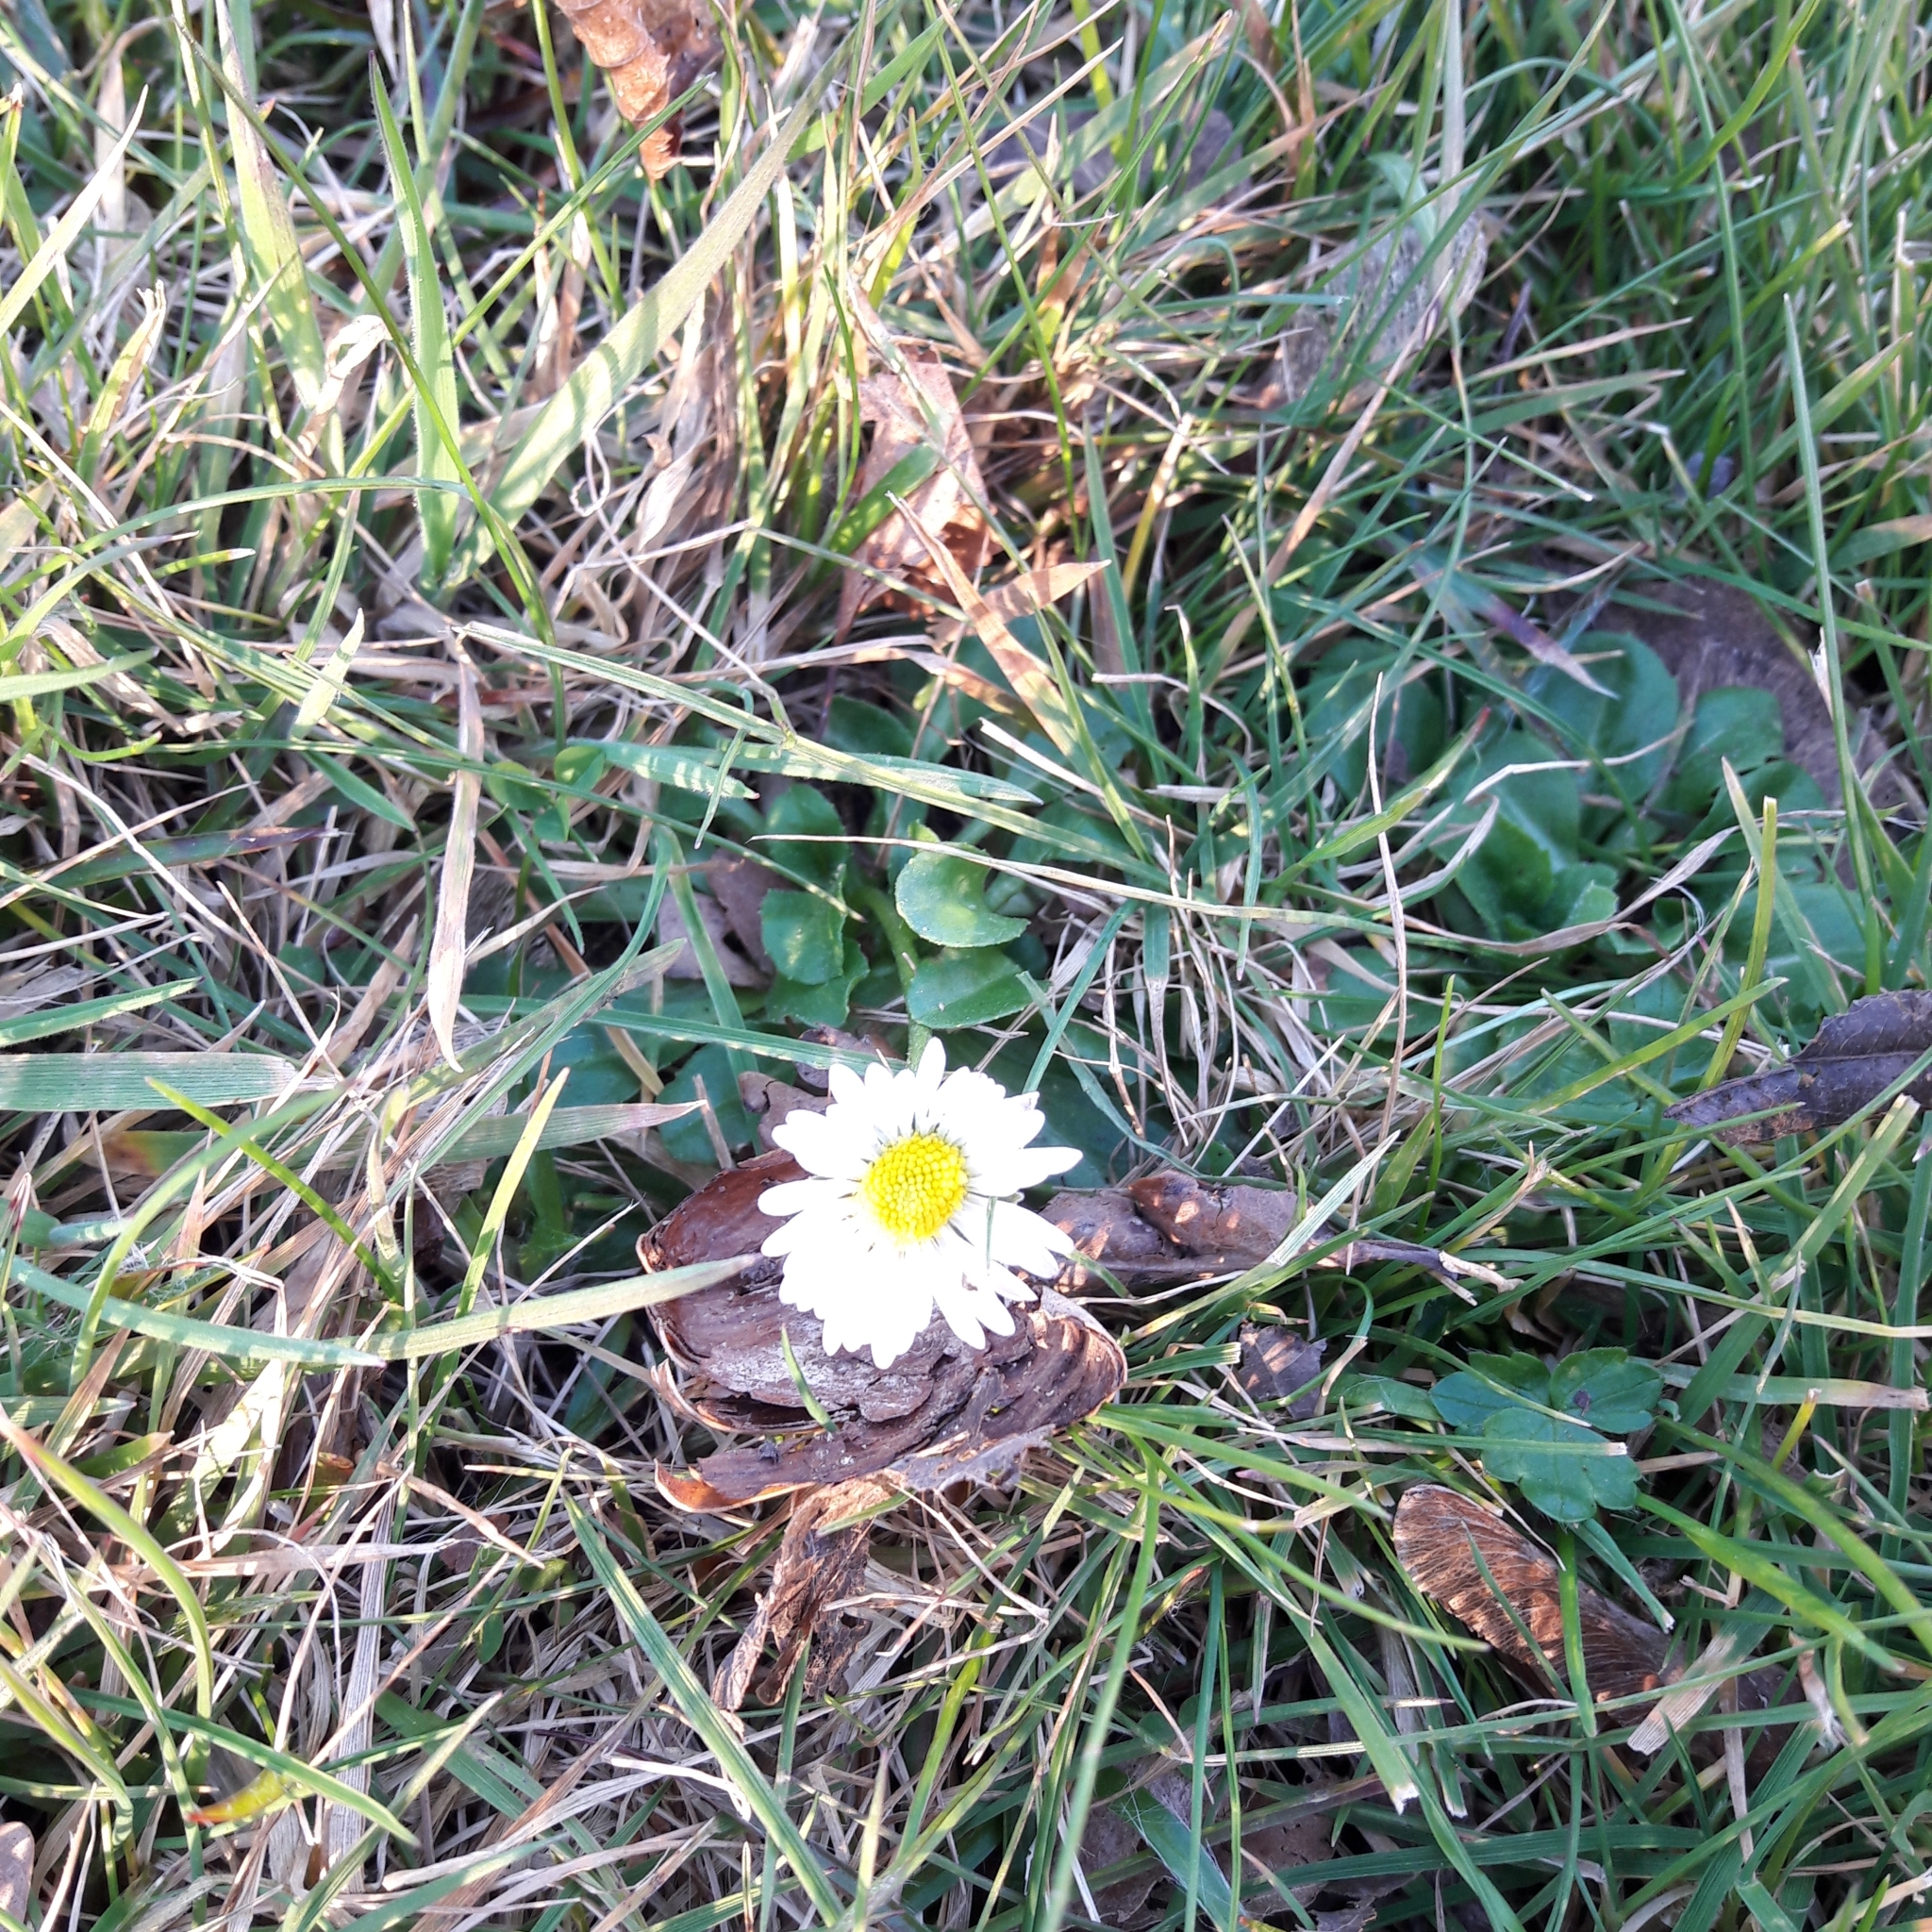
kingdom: Plantae
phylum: Tracheophyta
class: Magnoliopsida
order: Asterales
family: Asteraceae
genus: Bellis
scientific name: Bellis perennis
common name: Lawndaisy
